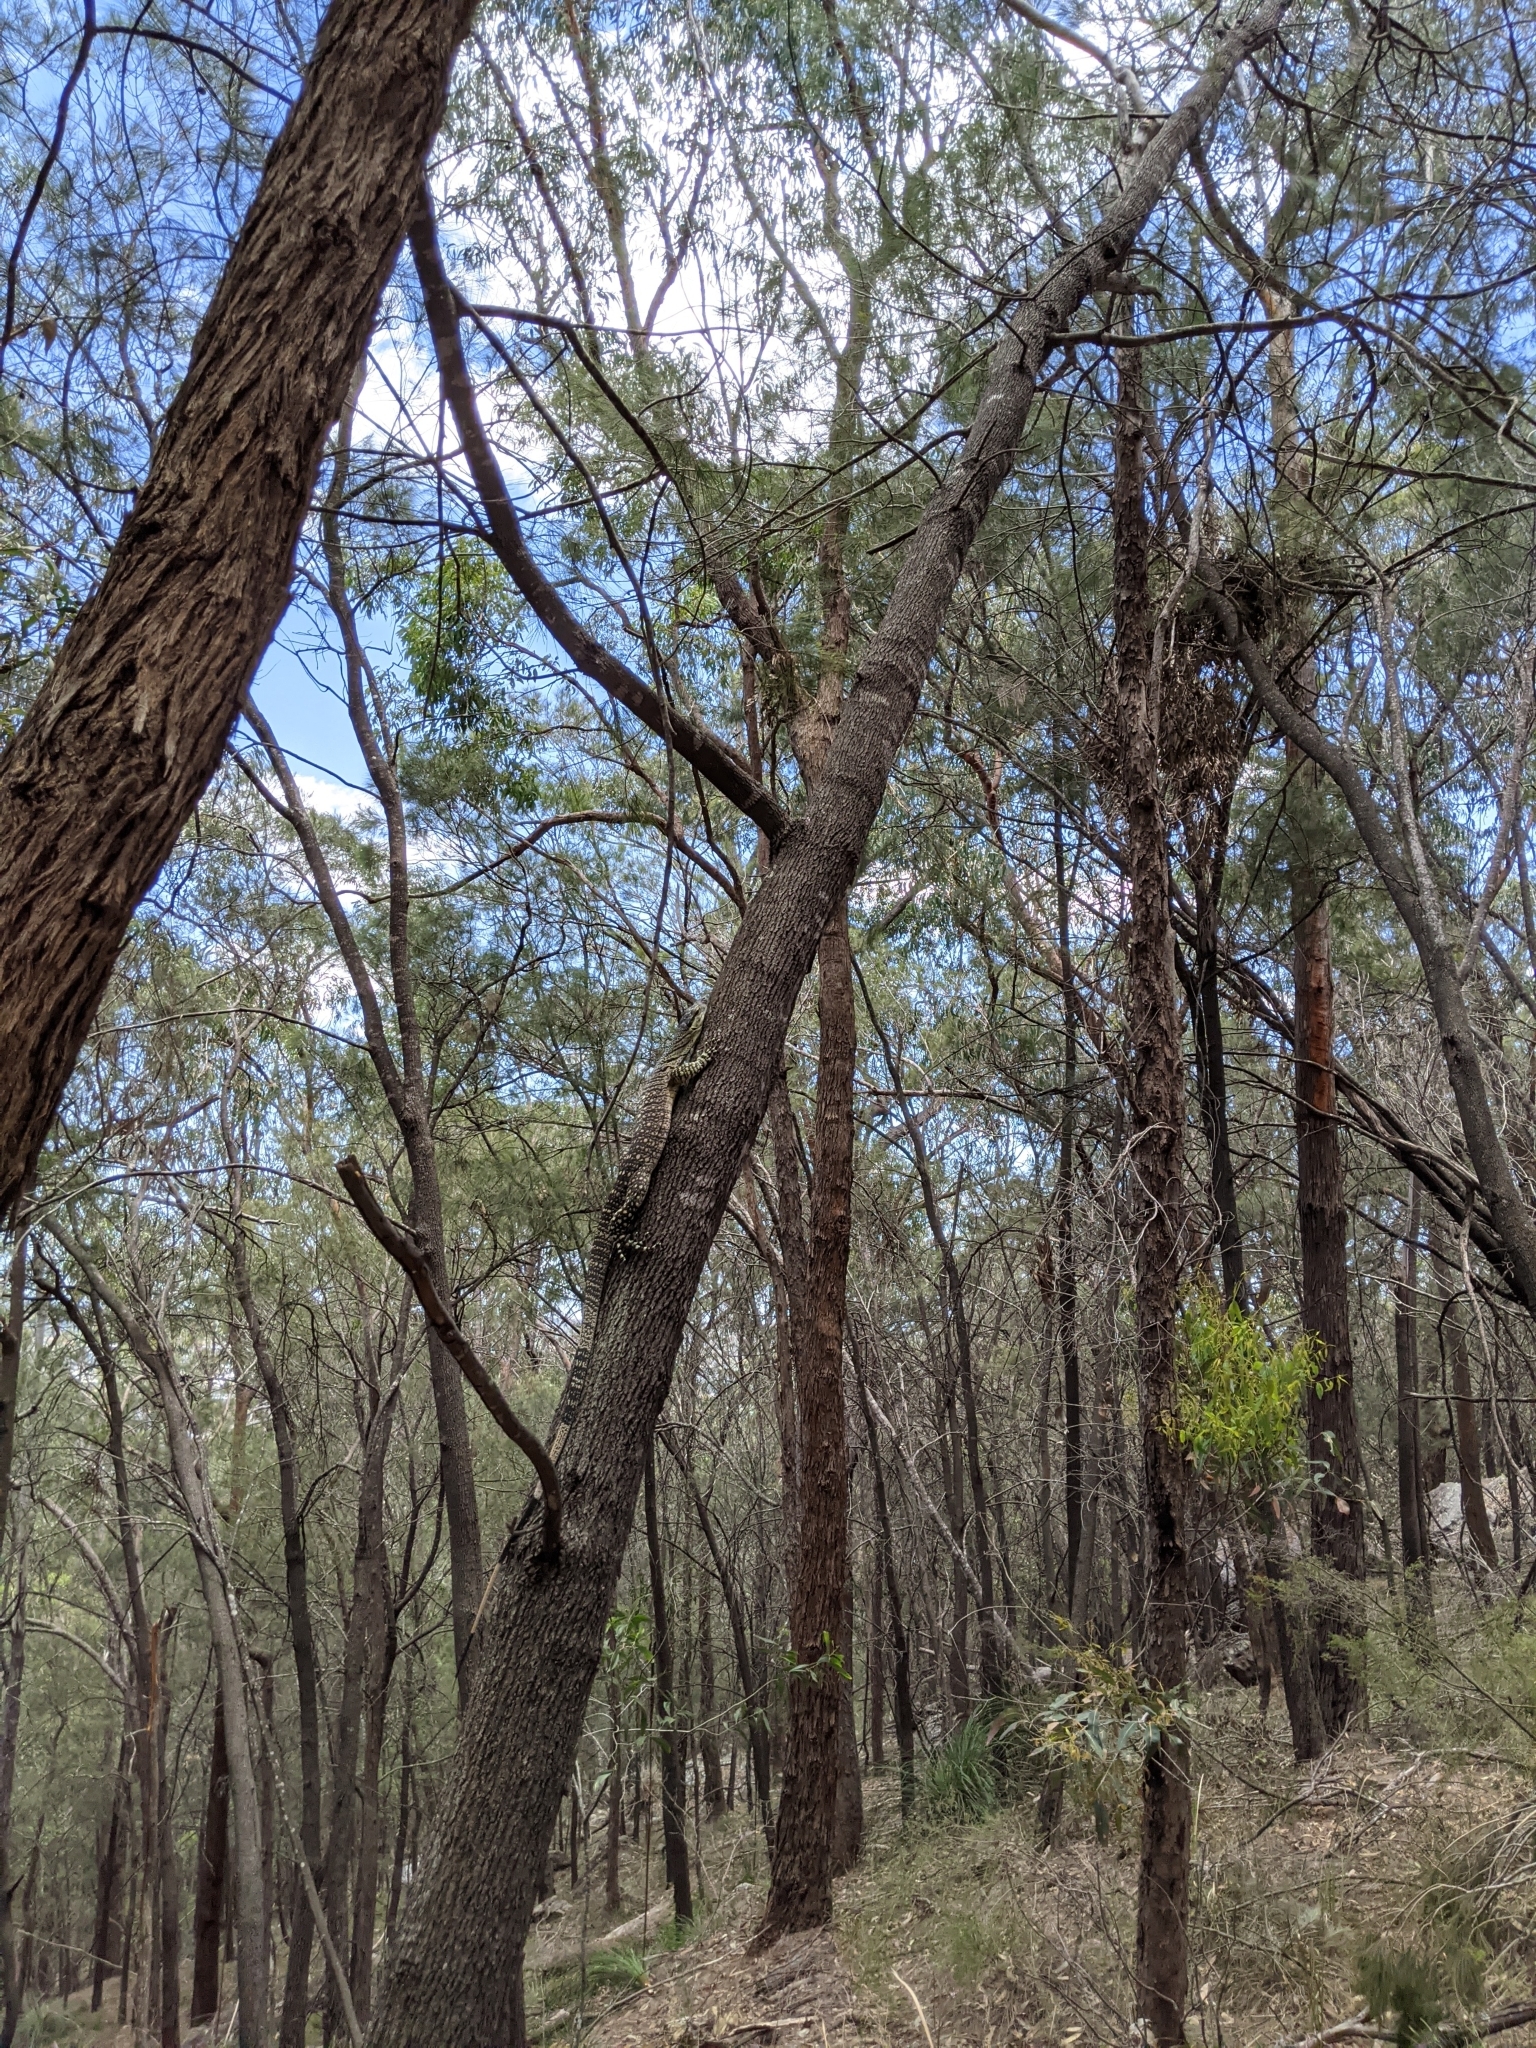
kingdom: Animalia
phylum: Chordata
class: Squamata
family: Varanidae
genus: Varanus
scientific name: Varanus varius
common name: Lace monitor
